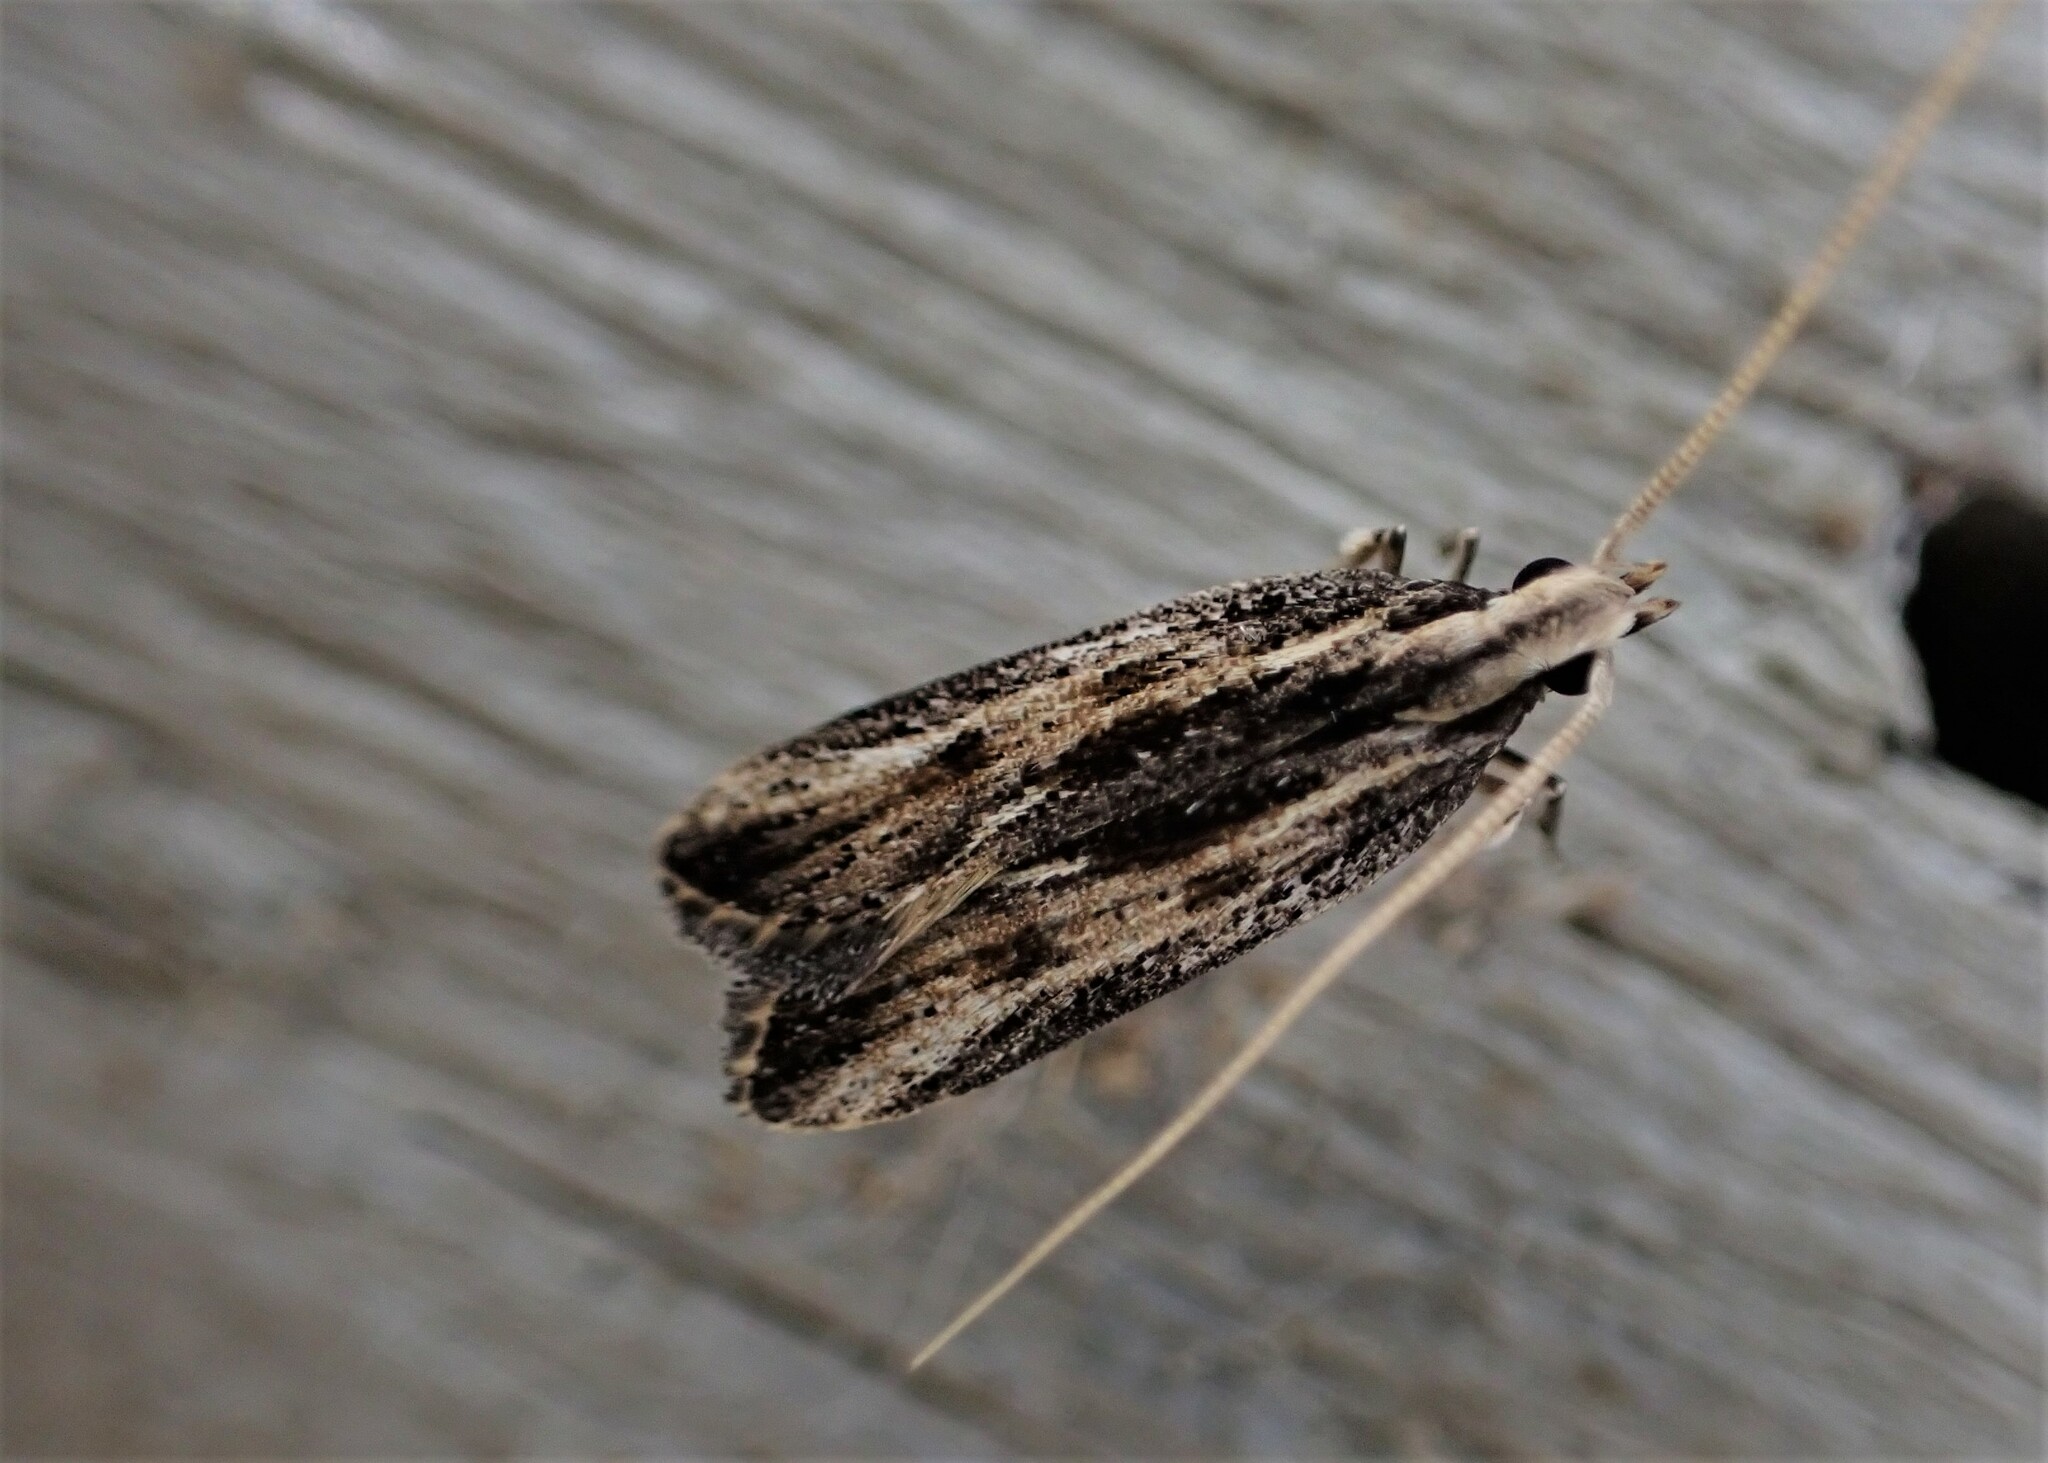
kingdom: Animalia
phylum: Arthropoda
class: Insecta
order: Lepidoptera
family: Lecithoceridae
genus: Sarisophora
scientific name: Sarisophora leucoscia
